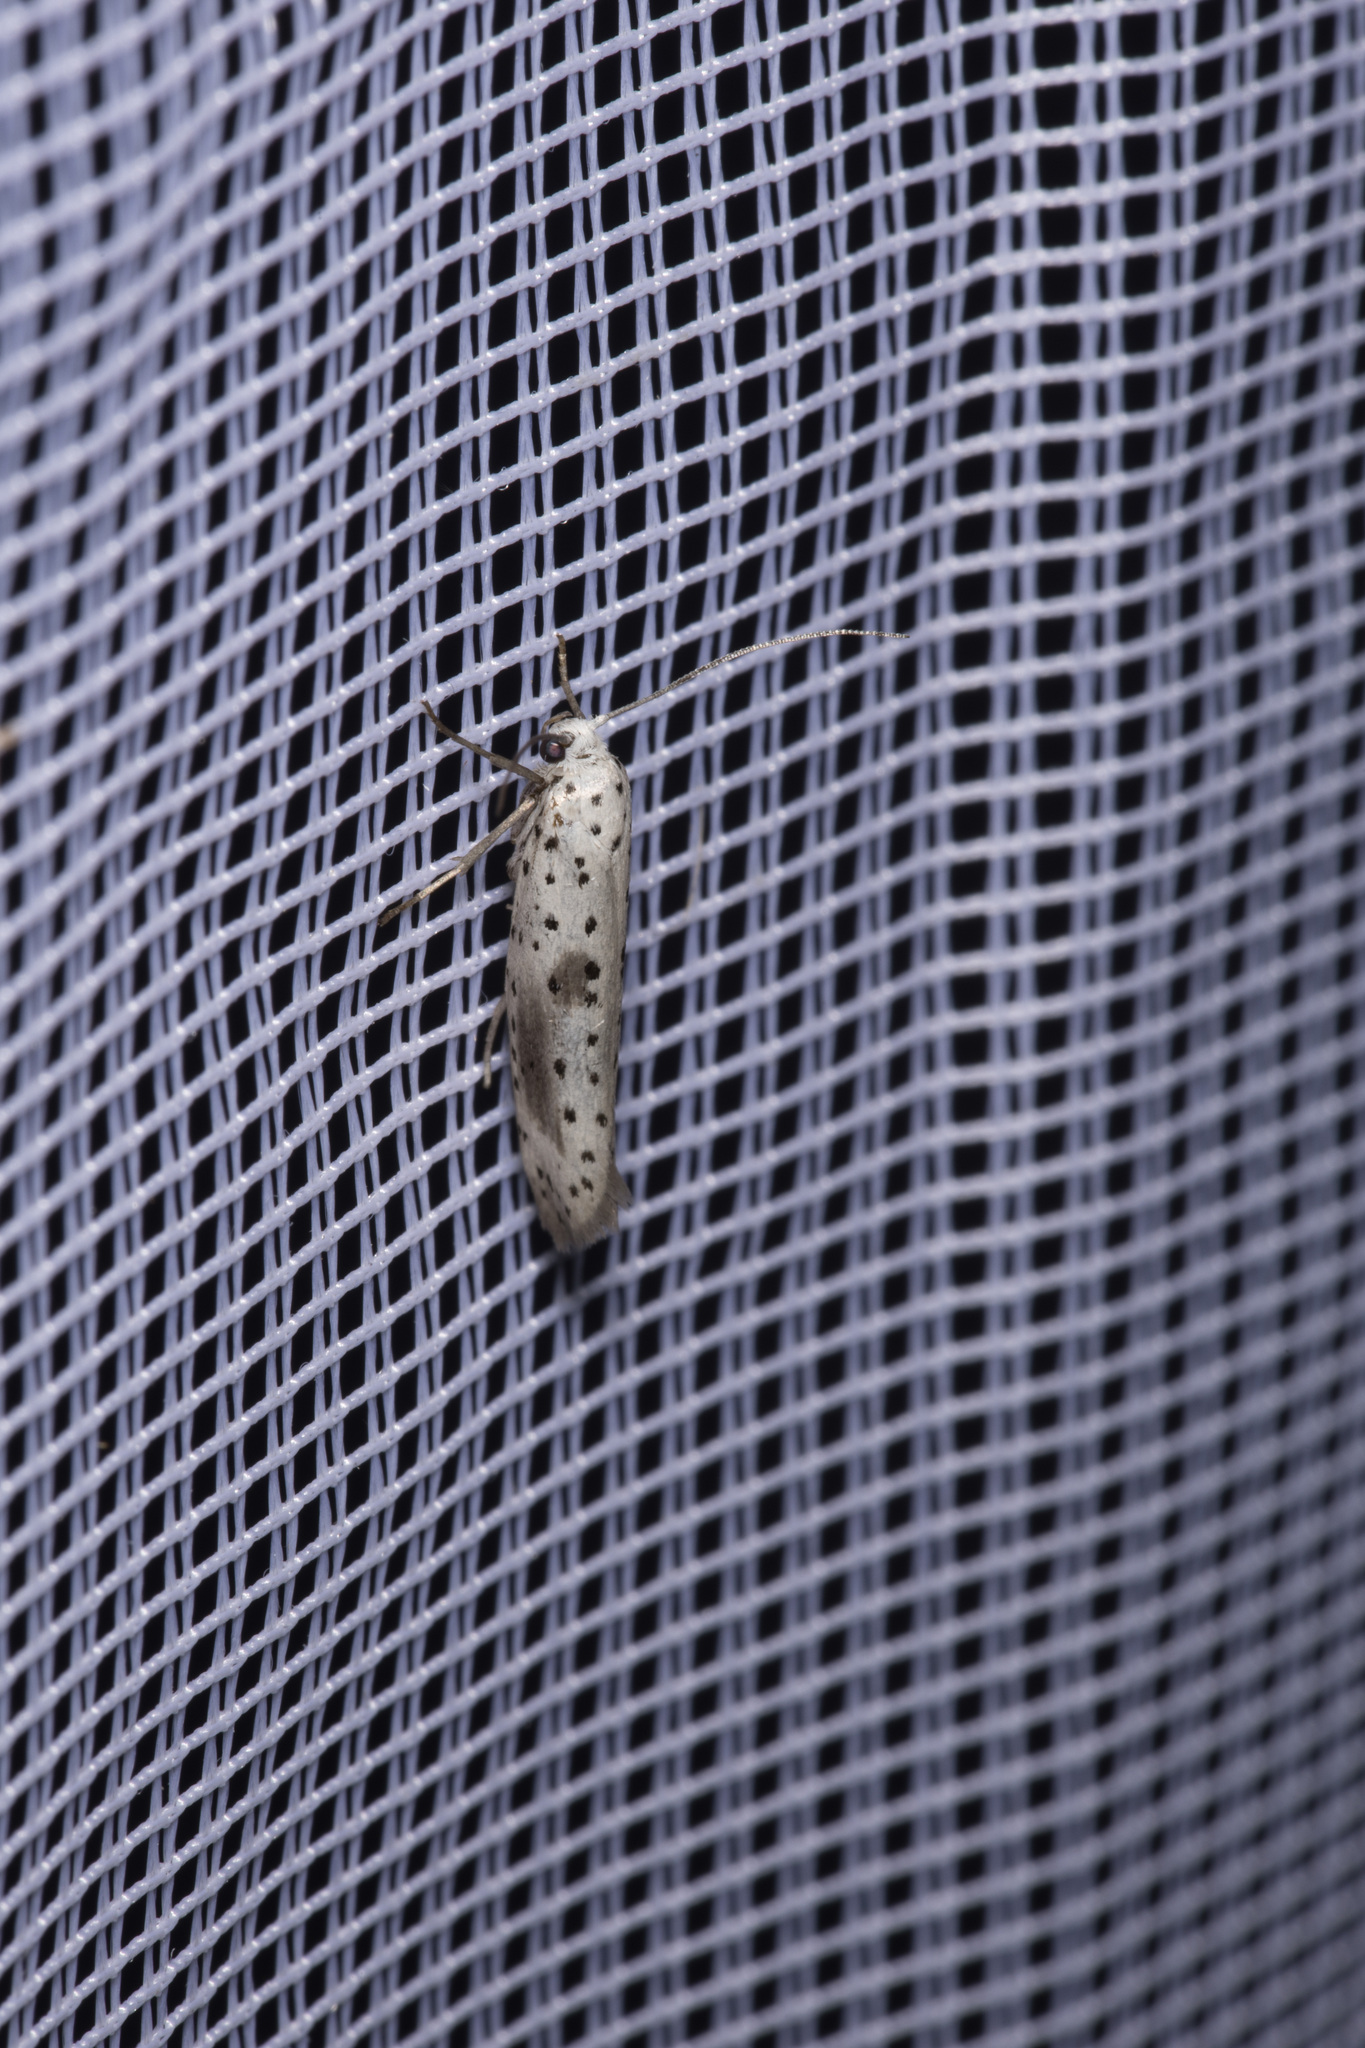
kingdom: Animalia
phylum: Arthropoda
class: Insecta
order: Lepidoptera
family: Yponomeutidae
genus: Yponomeuta
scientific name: Yponomeuta irrorella
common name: Scarce ermine
